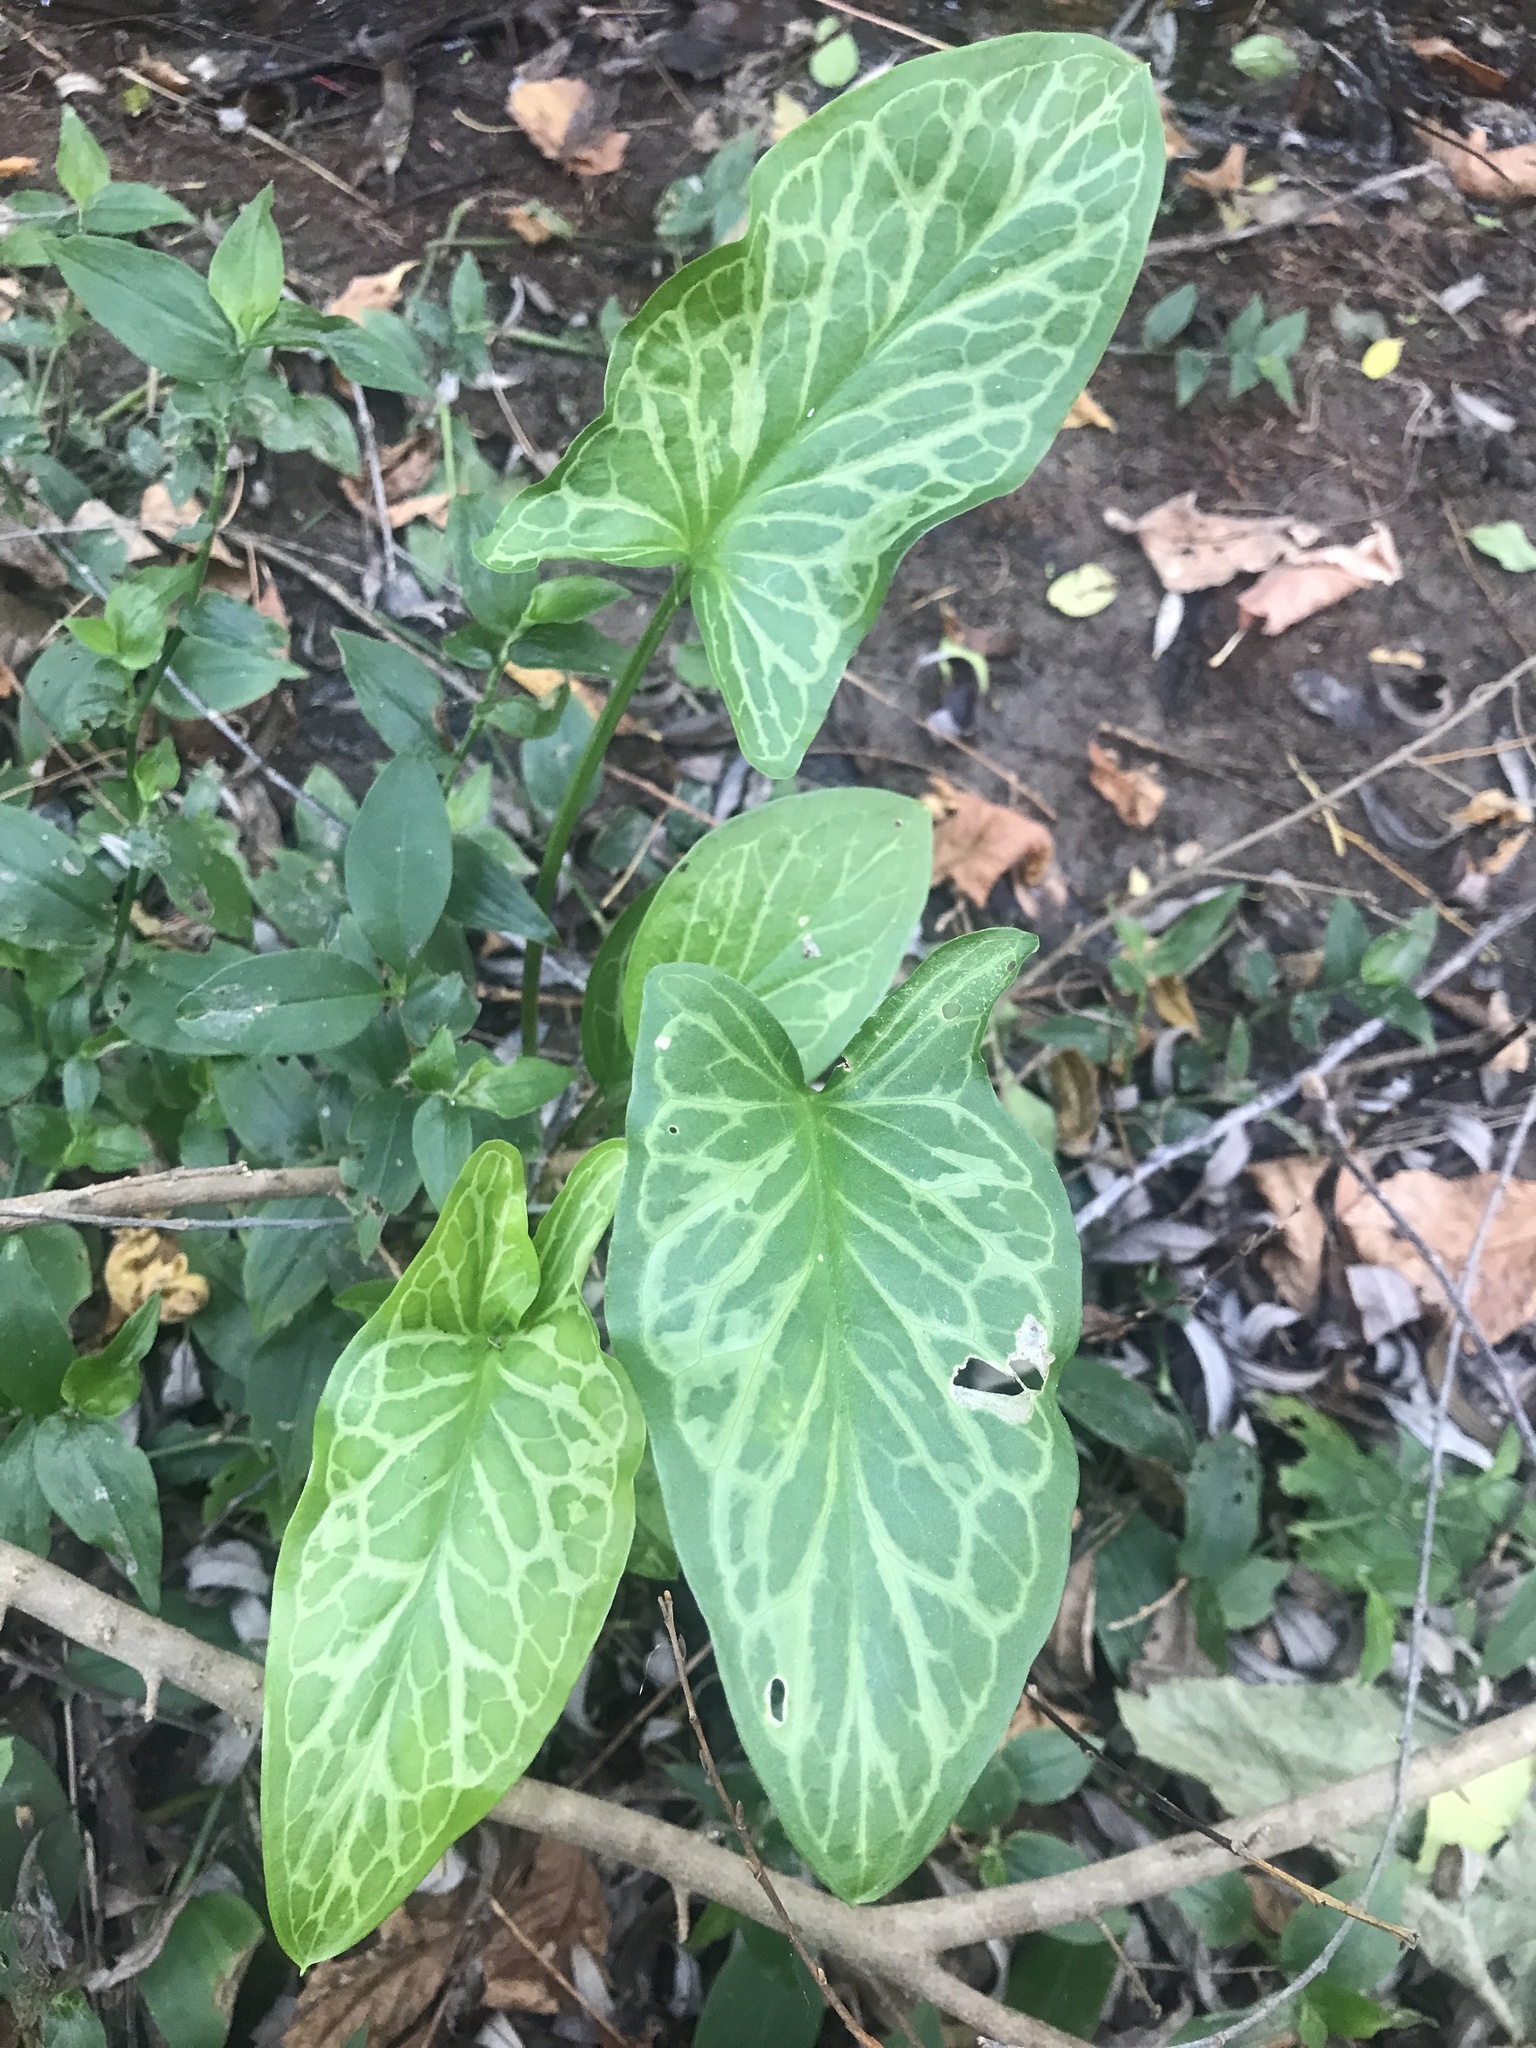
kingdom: Plantae
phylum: Tracheophyta
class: Liliopsida
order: Alismatales
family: Araceae
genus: Arum
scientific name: Arum italicum
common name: Italian lords-and-ladies
